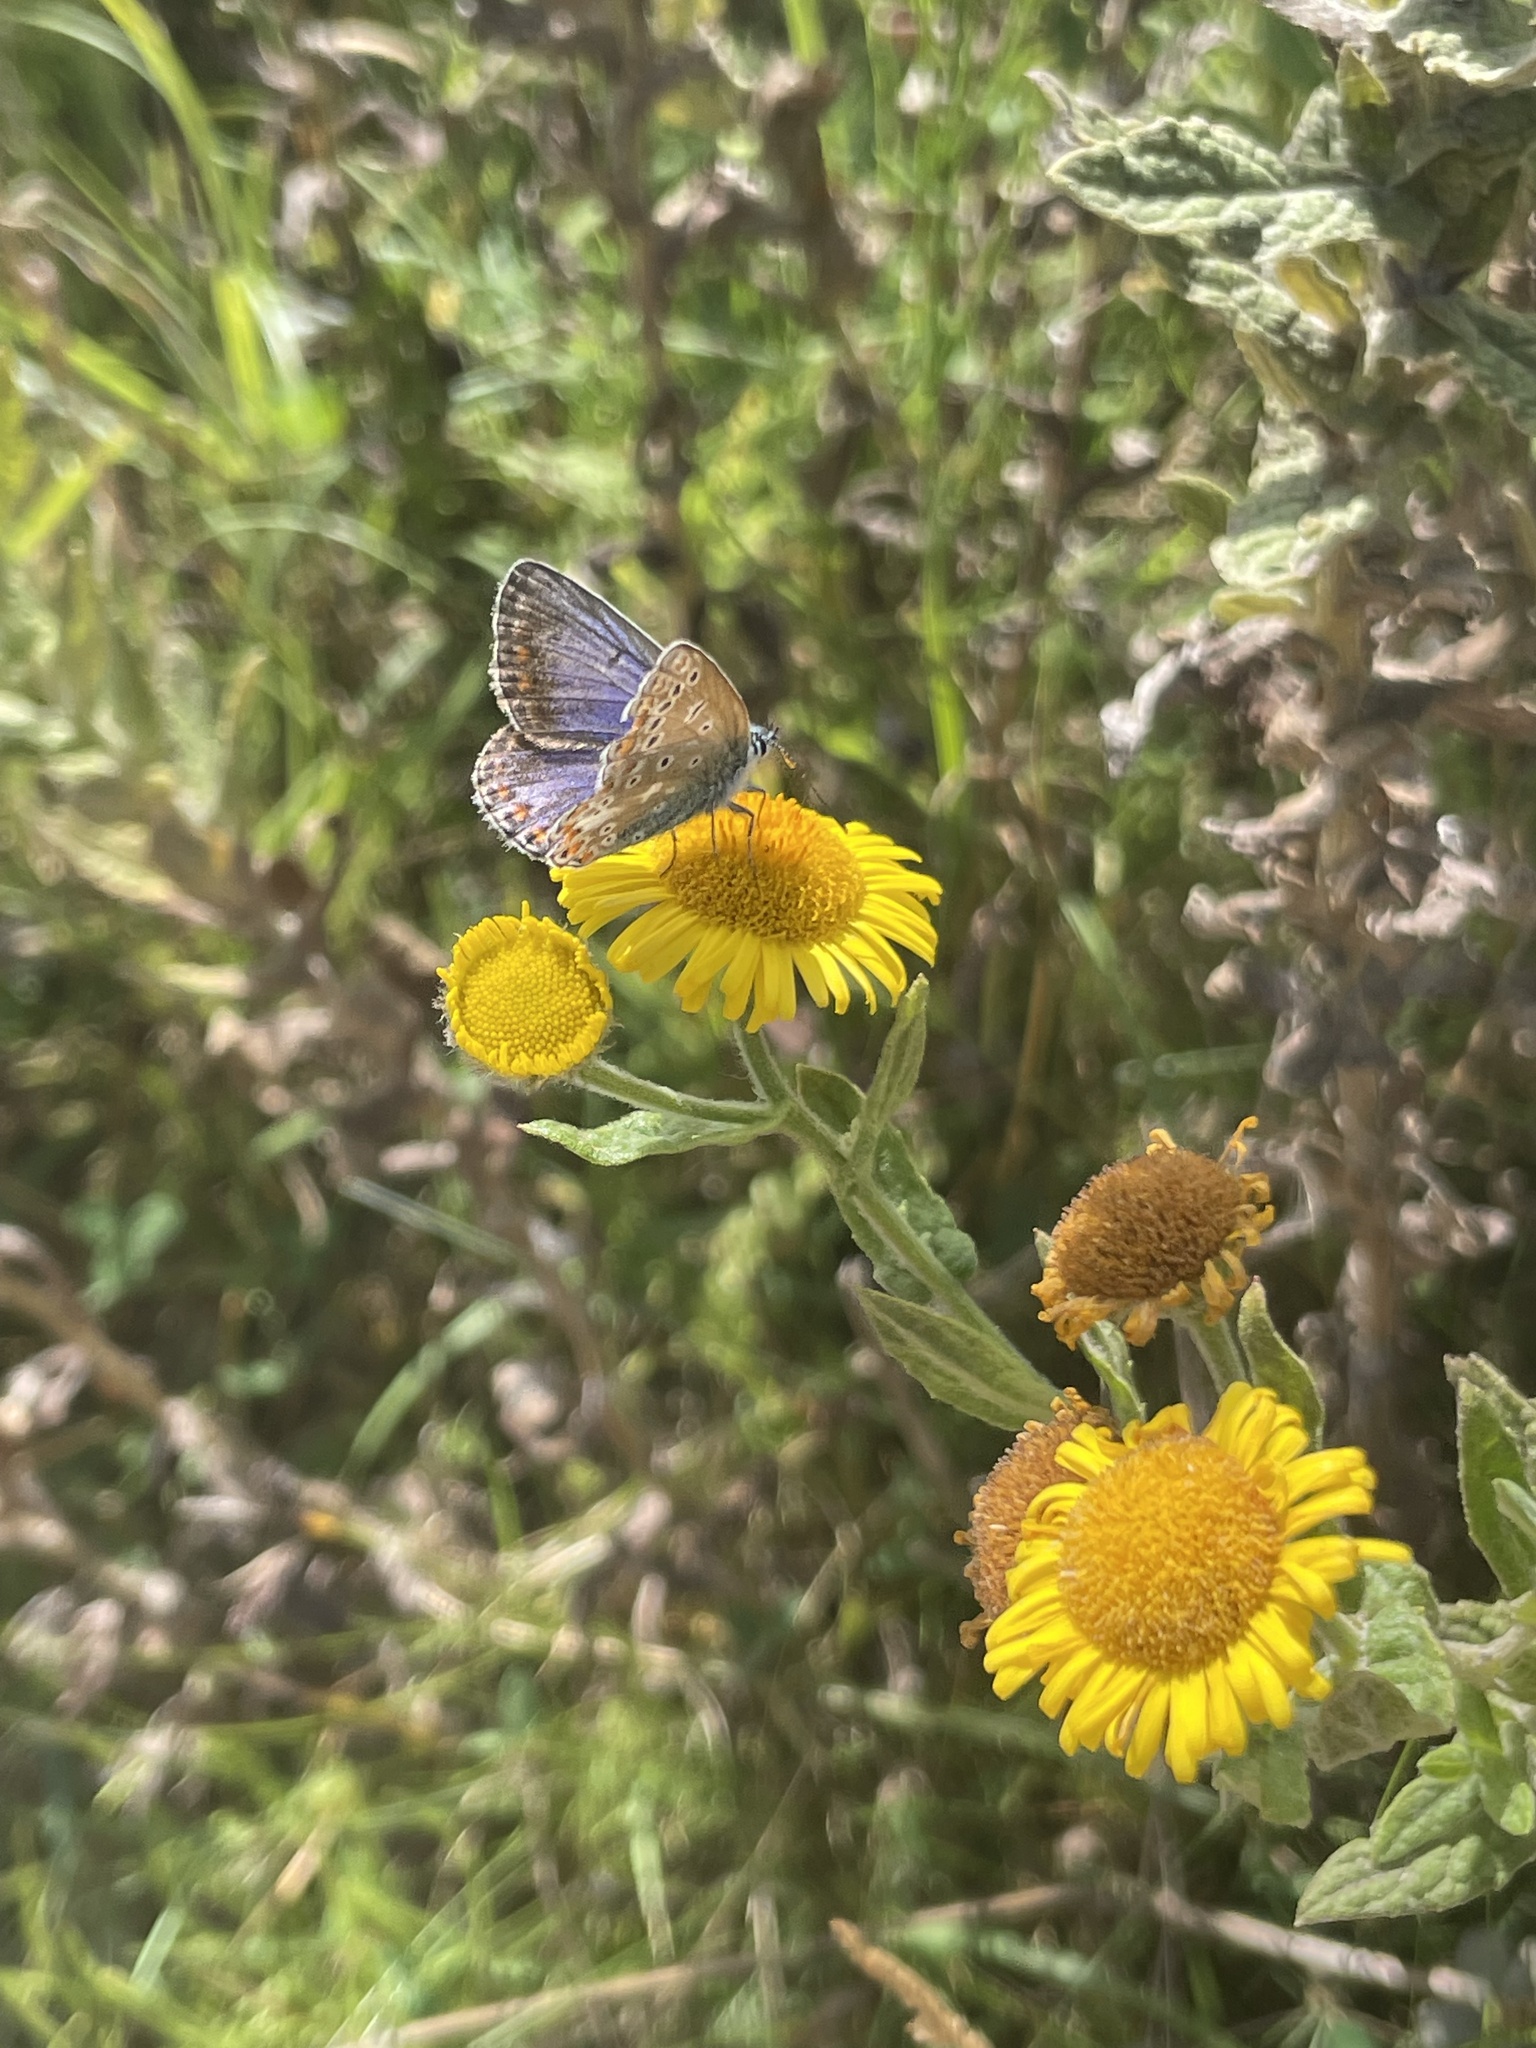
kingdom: Plantae
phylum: Tracheophyta
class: Magnoliopsida
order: Asterales
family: Asteraceae
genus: Pulicaria
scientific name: Pulicaria dysenterica
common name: Common fleabane
